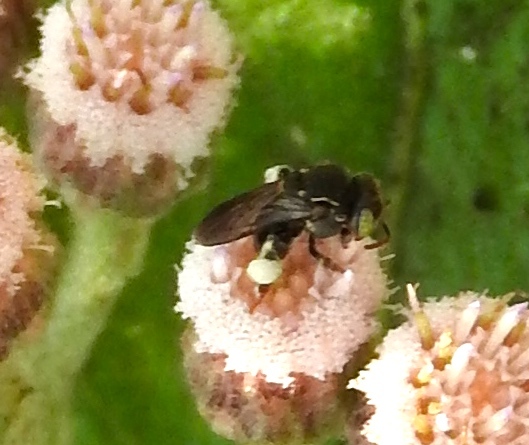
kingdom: Animalia
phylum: Arthropoda
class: Insecta
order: Hymenoptera
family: Apidae
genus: Nannotrigona
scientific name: Nannotrigona perilampoides
